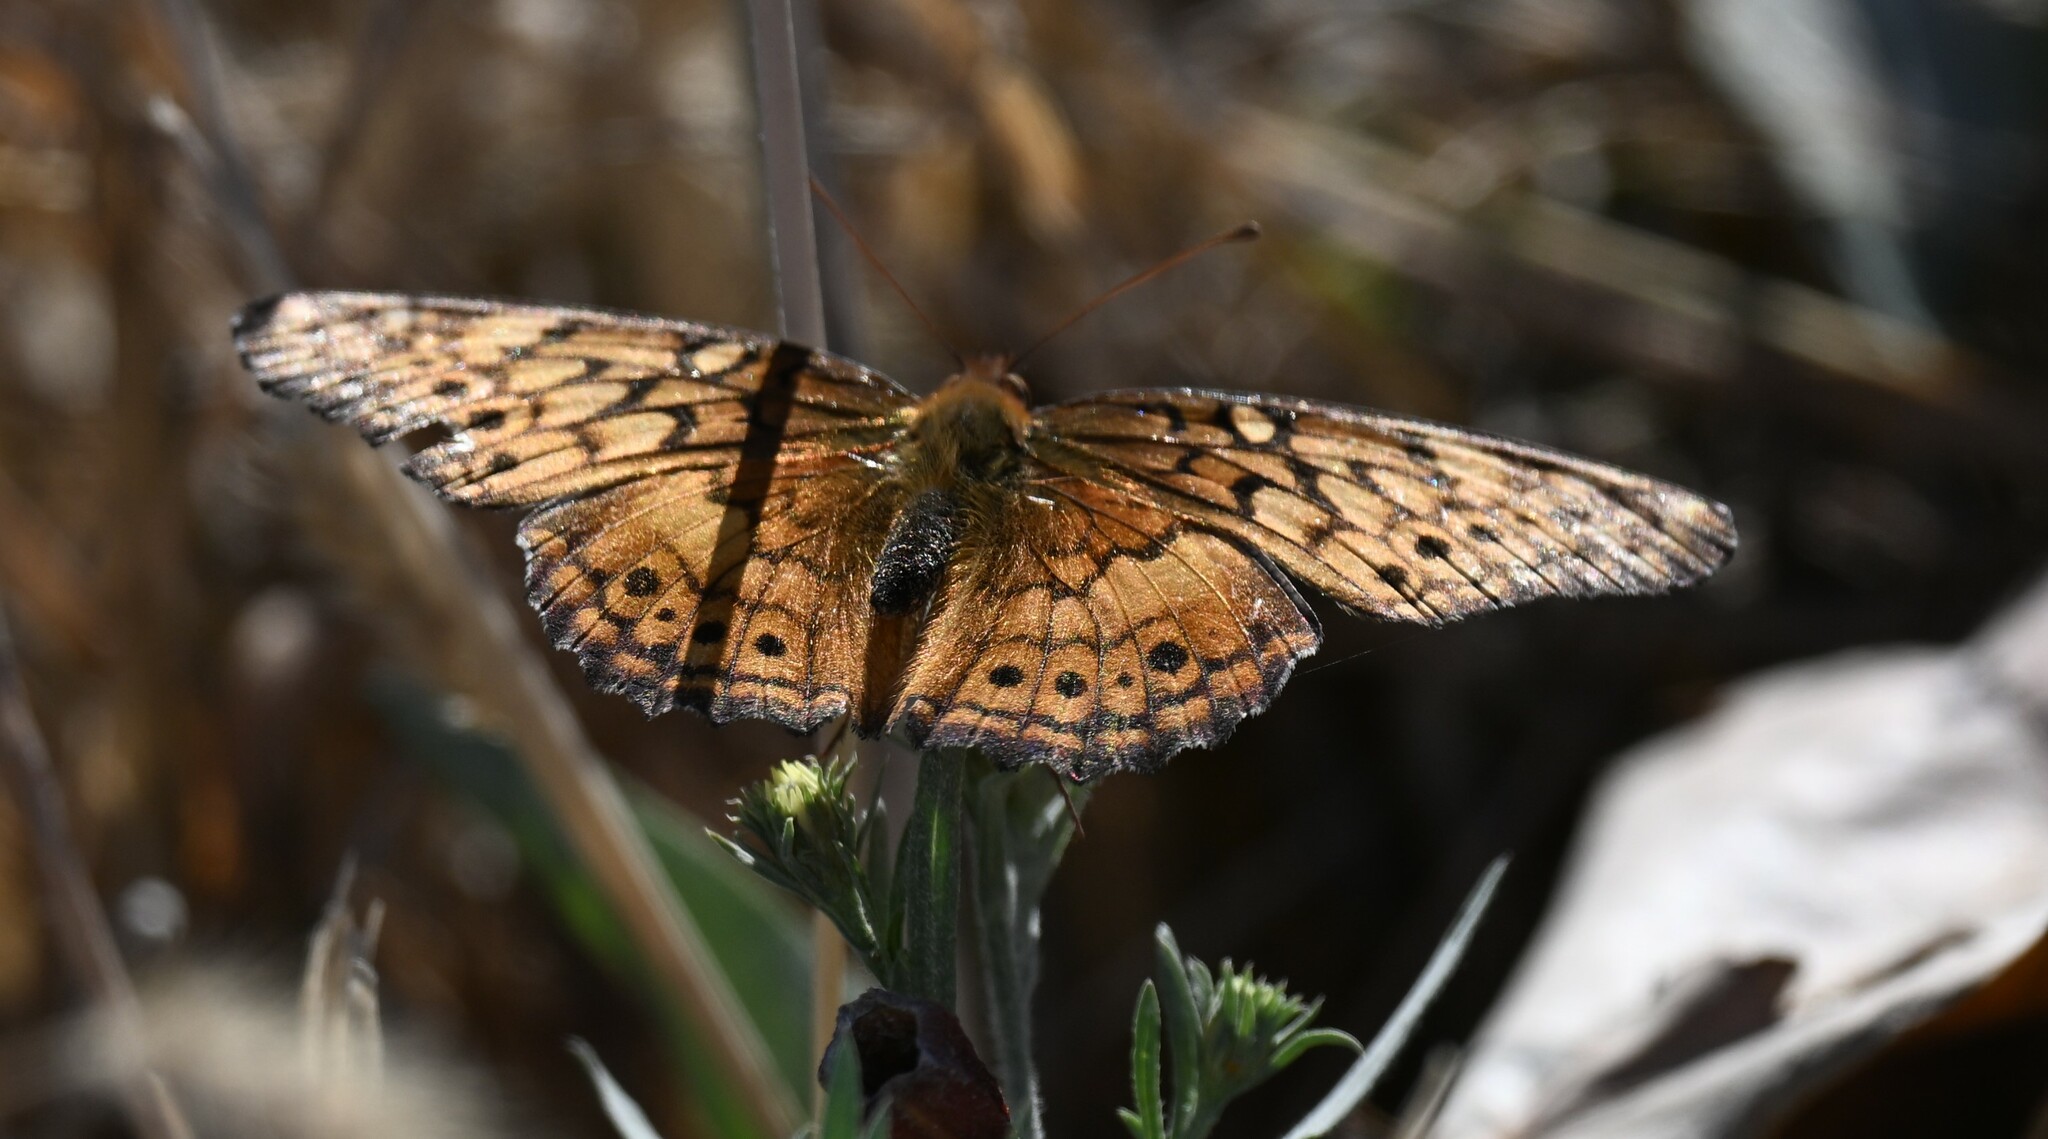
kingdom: Animalia
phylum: Arthropoda
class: Insecta
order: Lepidoptera
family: Nymphalidae
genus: Euptoieta
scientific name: Euptoieta claudia
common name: Variegated fritillary
